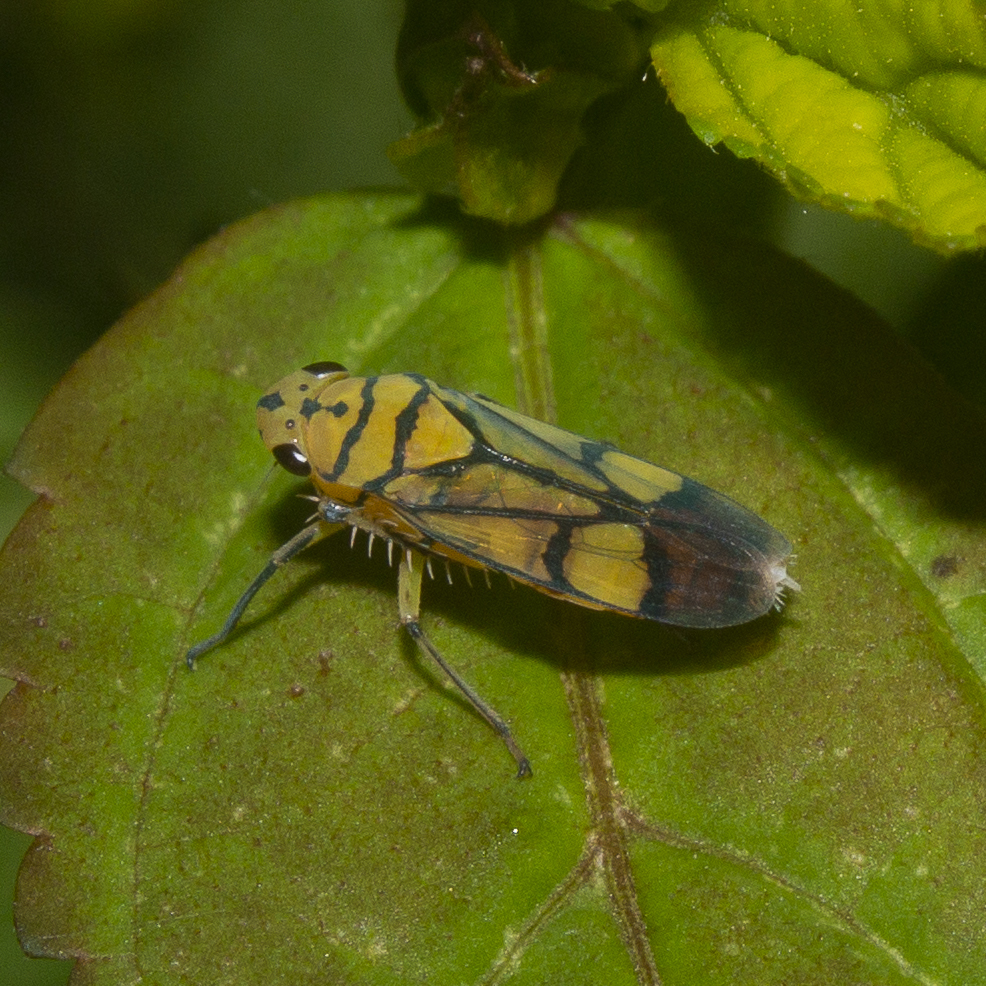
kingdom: Animalia
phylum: Arthropoda
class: Insecta
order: Hemiptera
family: Cicadellidae
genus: Parathona
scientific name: Parathona cayennensis
